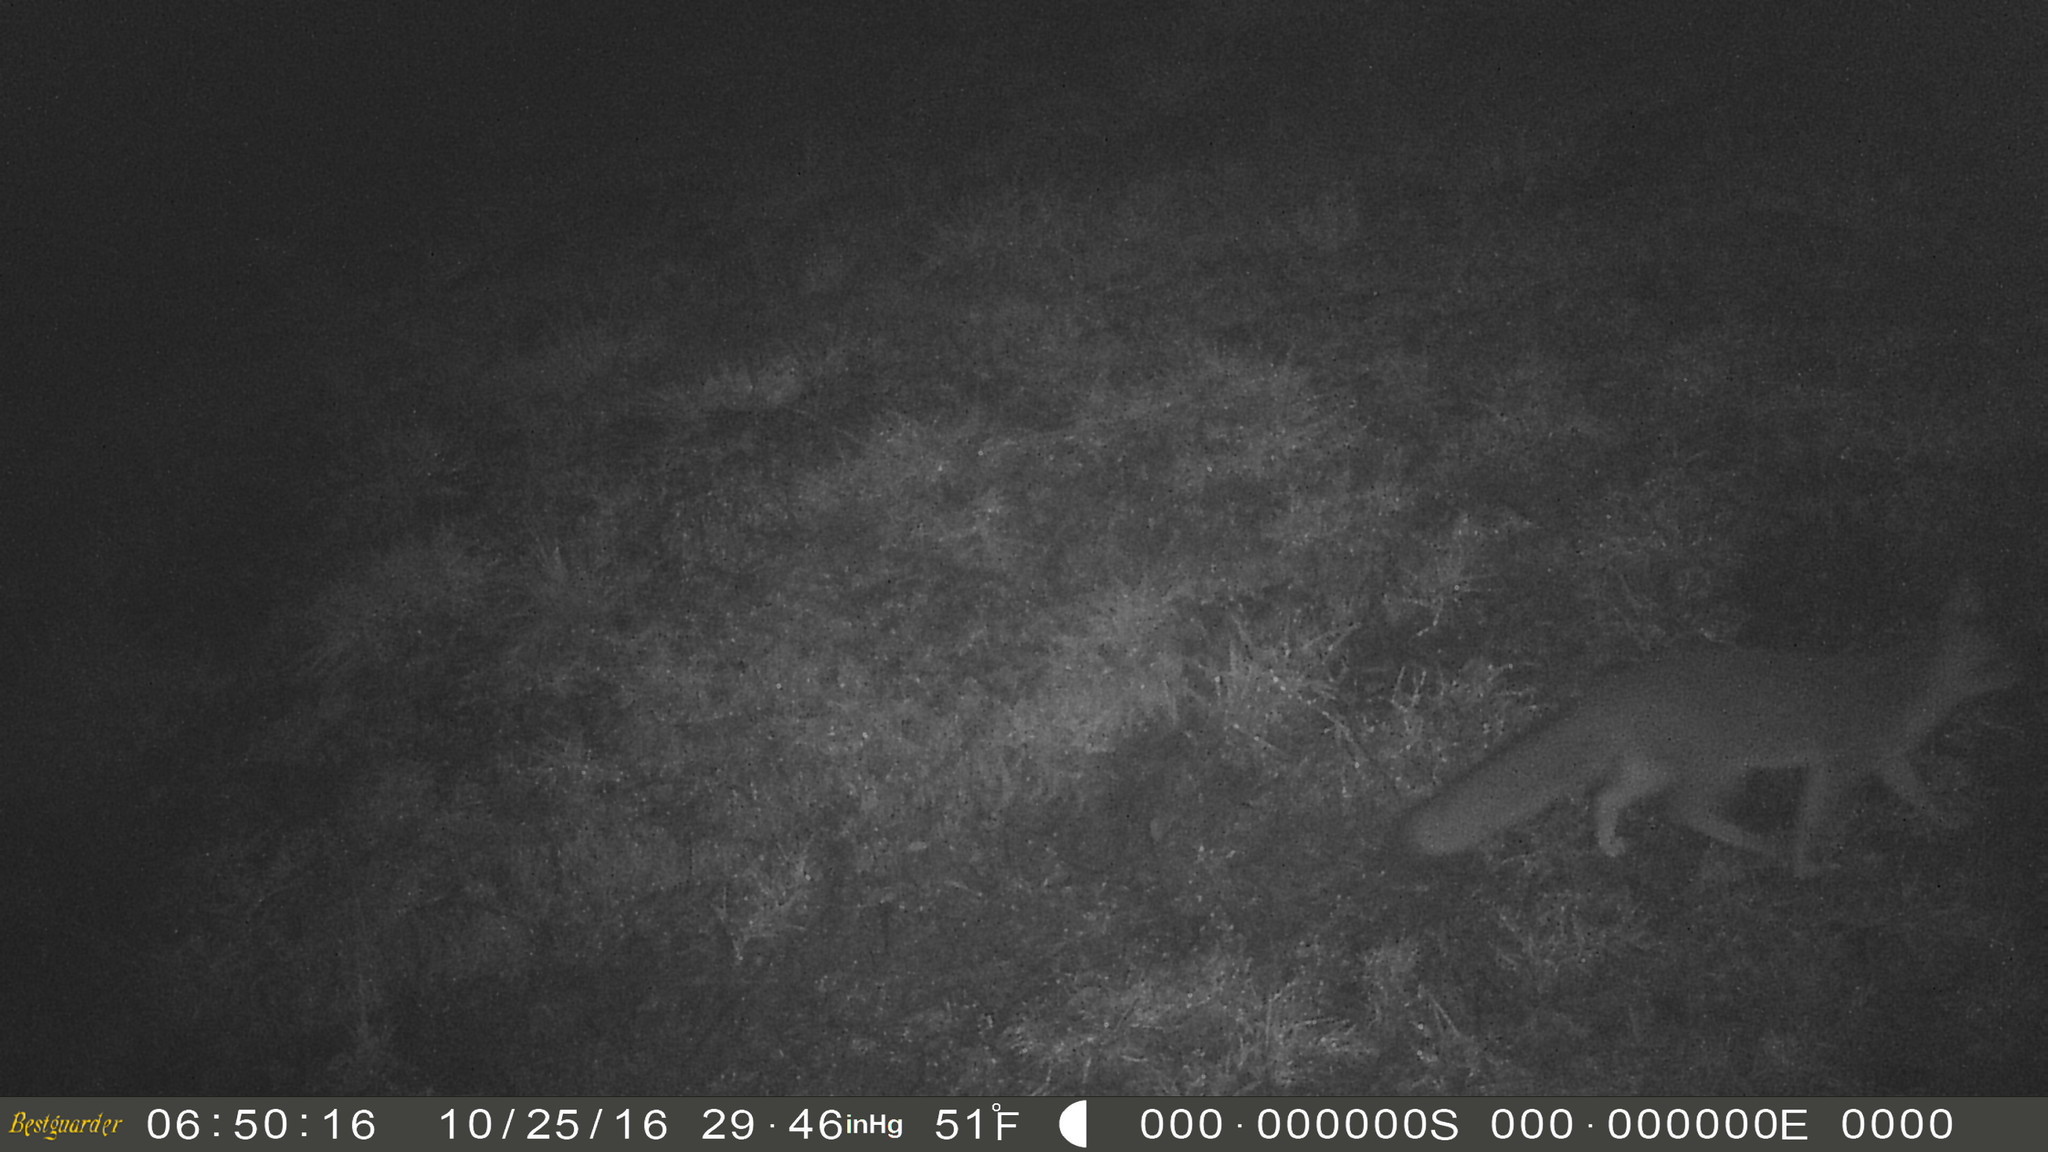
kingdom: Animalia
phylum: Chordata
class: Mammalia
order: Carnivora
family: Canidae
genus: Urocyon
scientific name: Urocyon cinereoargenteus
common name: Gray fox
